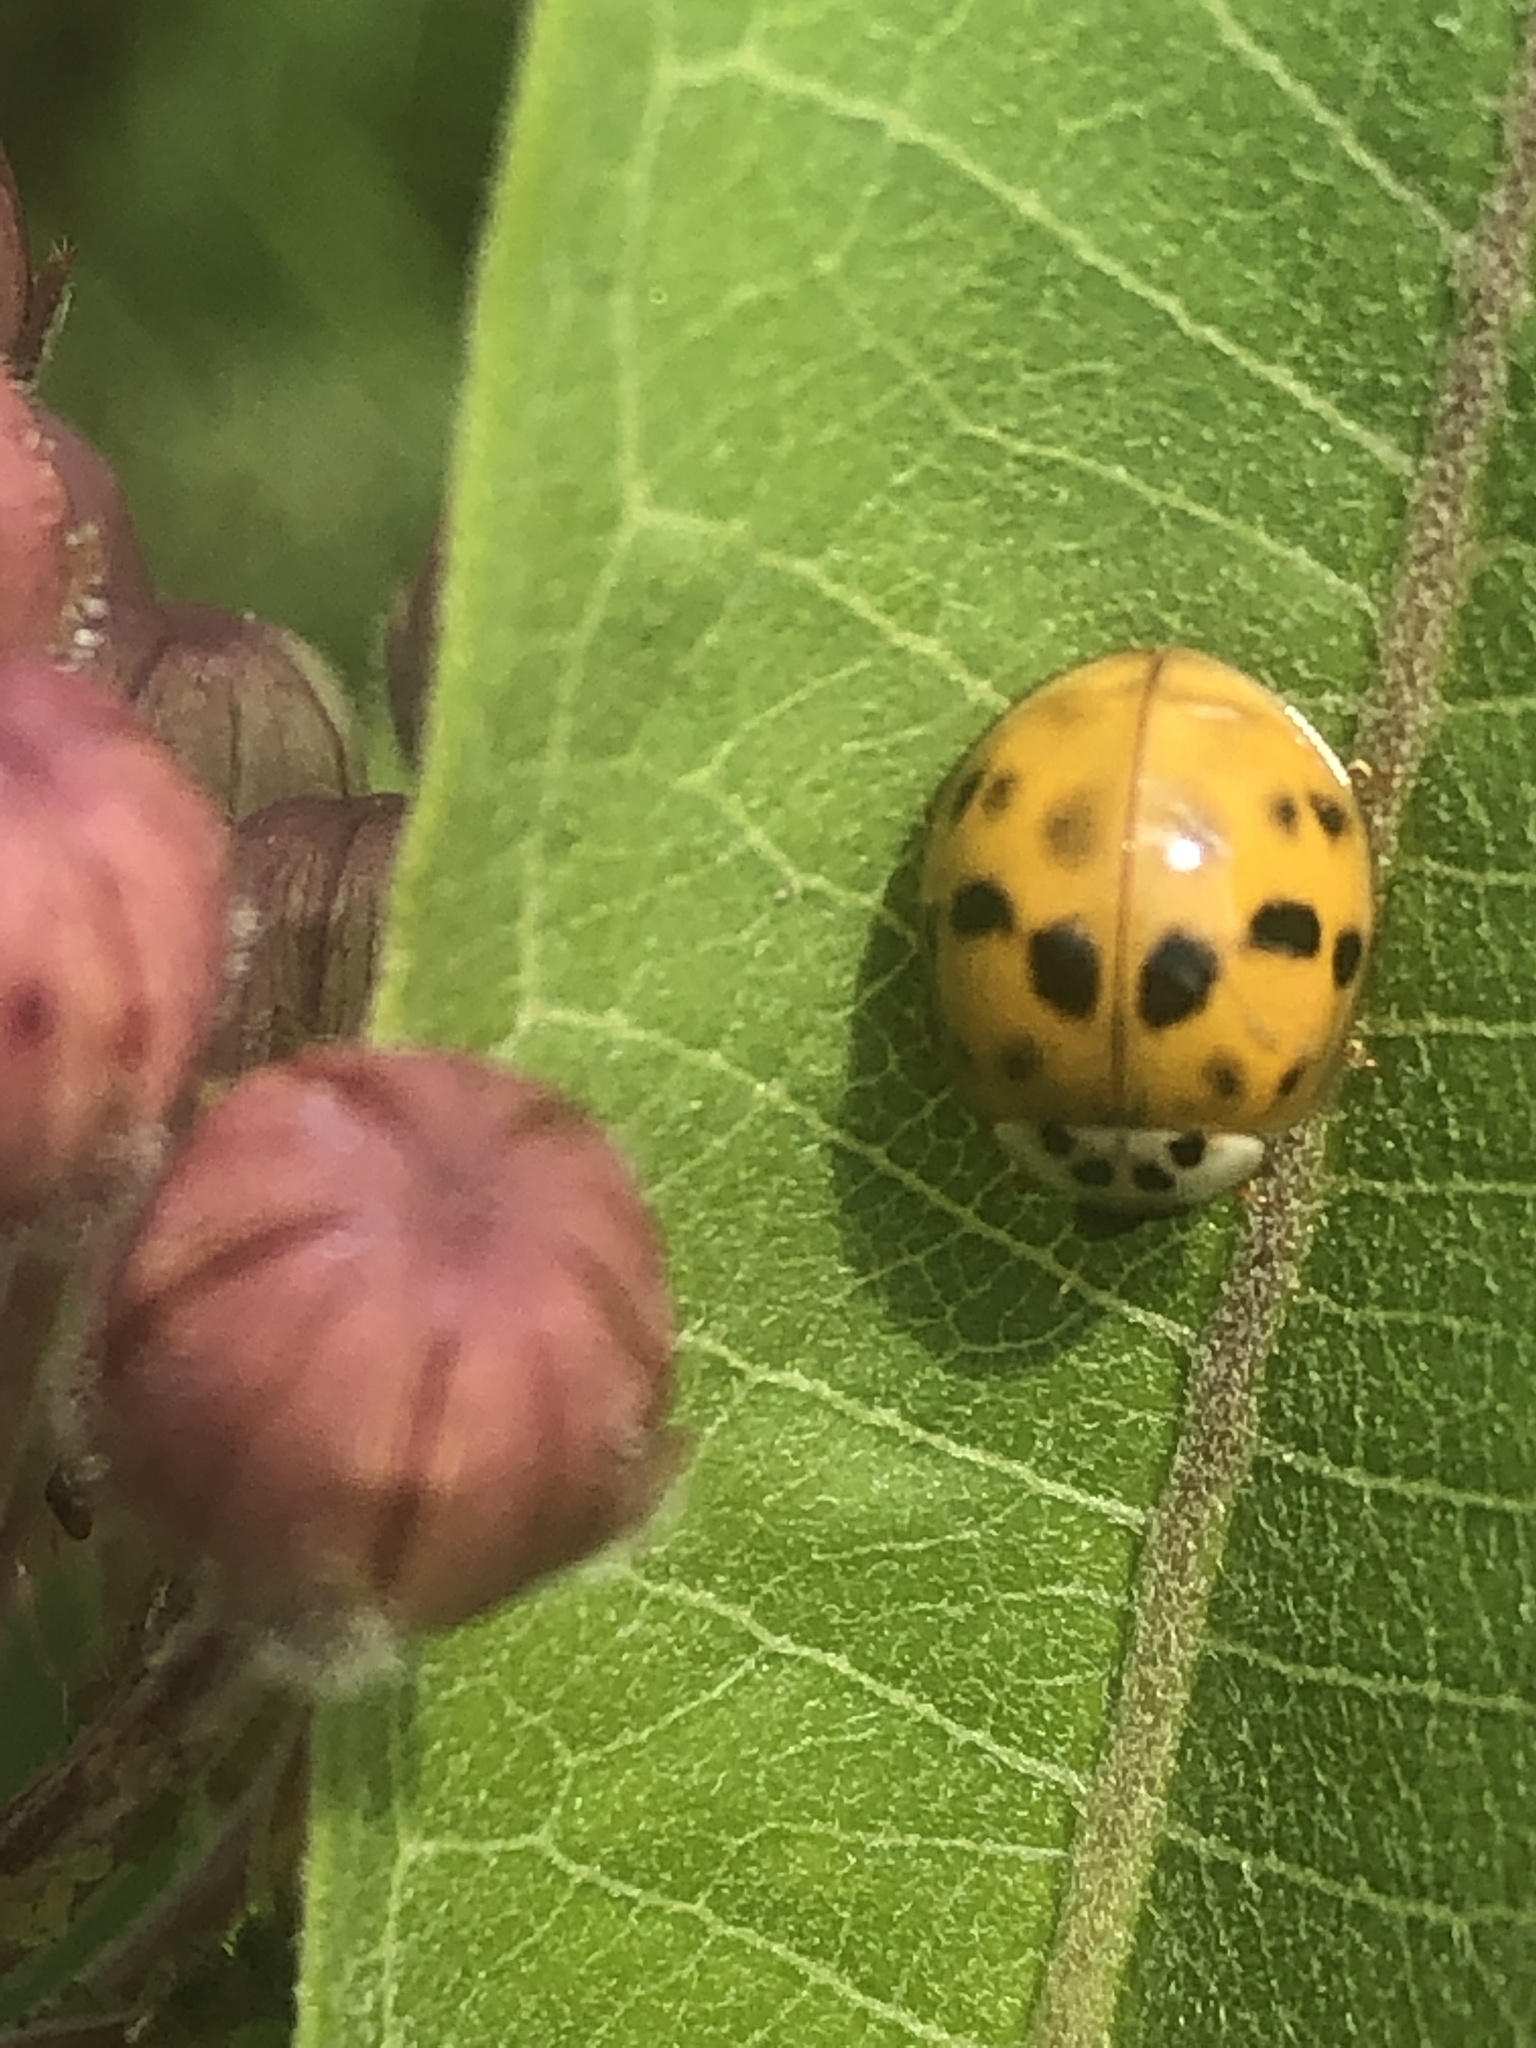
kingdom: Animalia
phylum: Arthropoda
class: Insecta
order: Coleoptera
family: Coccinellidae
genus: Harmonia
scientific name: Harmonia axyridis
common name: Harlequin ladybird
